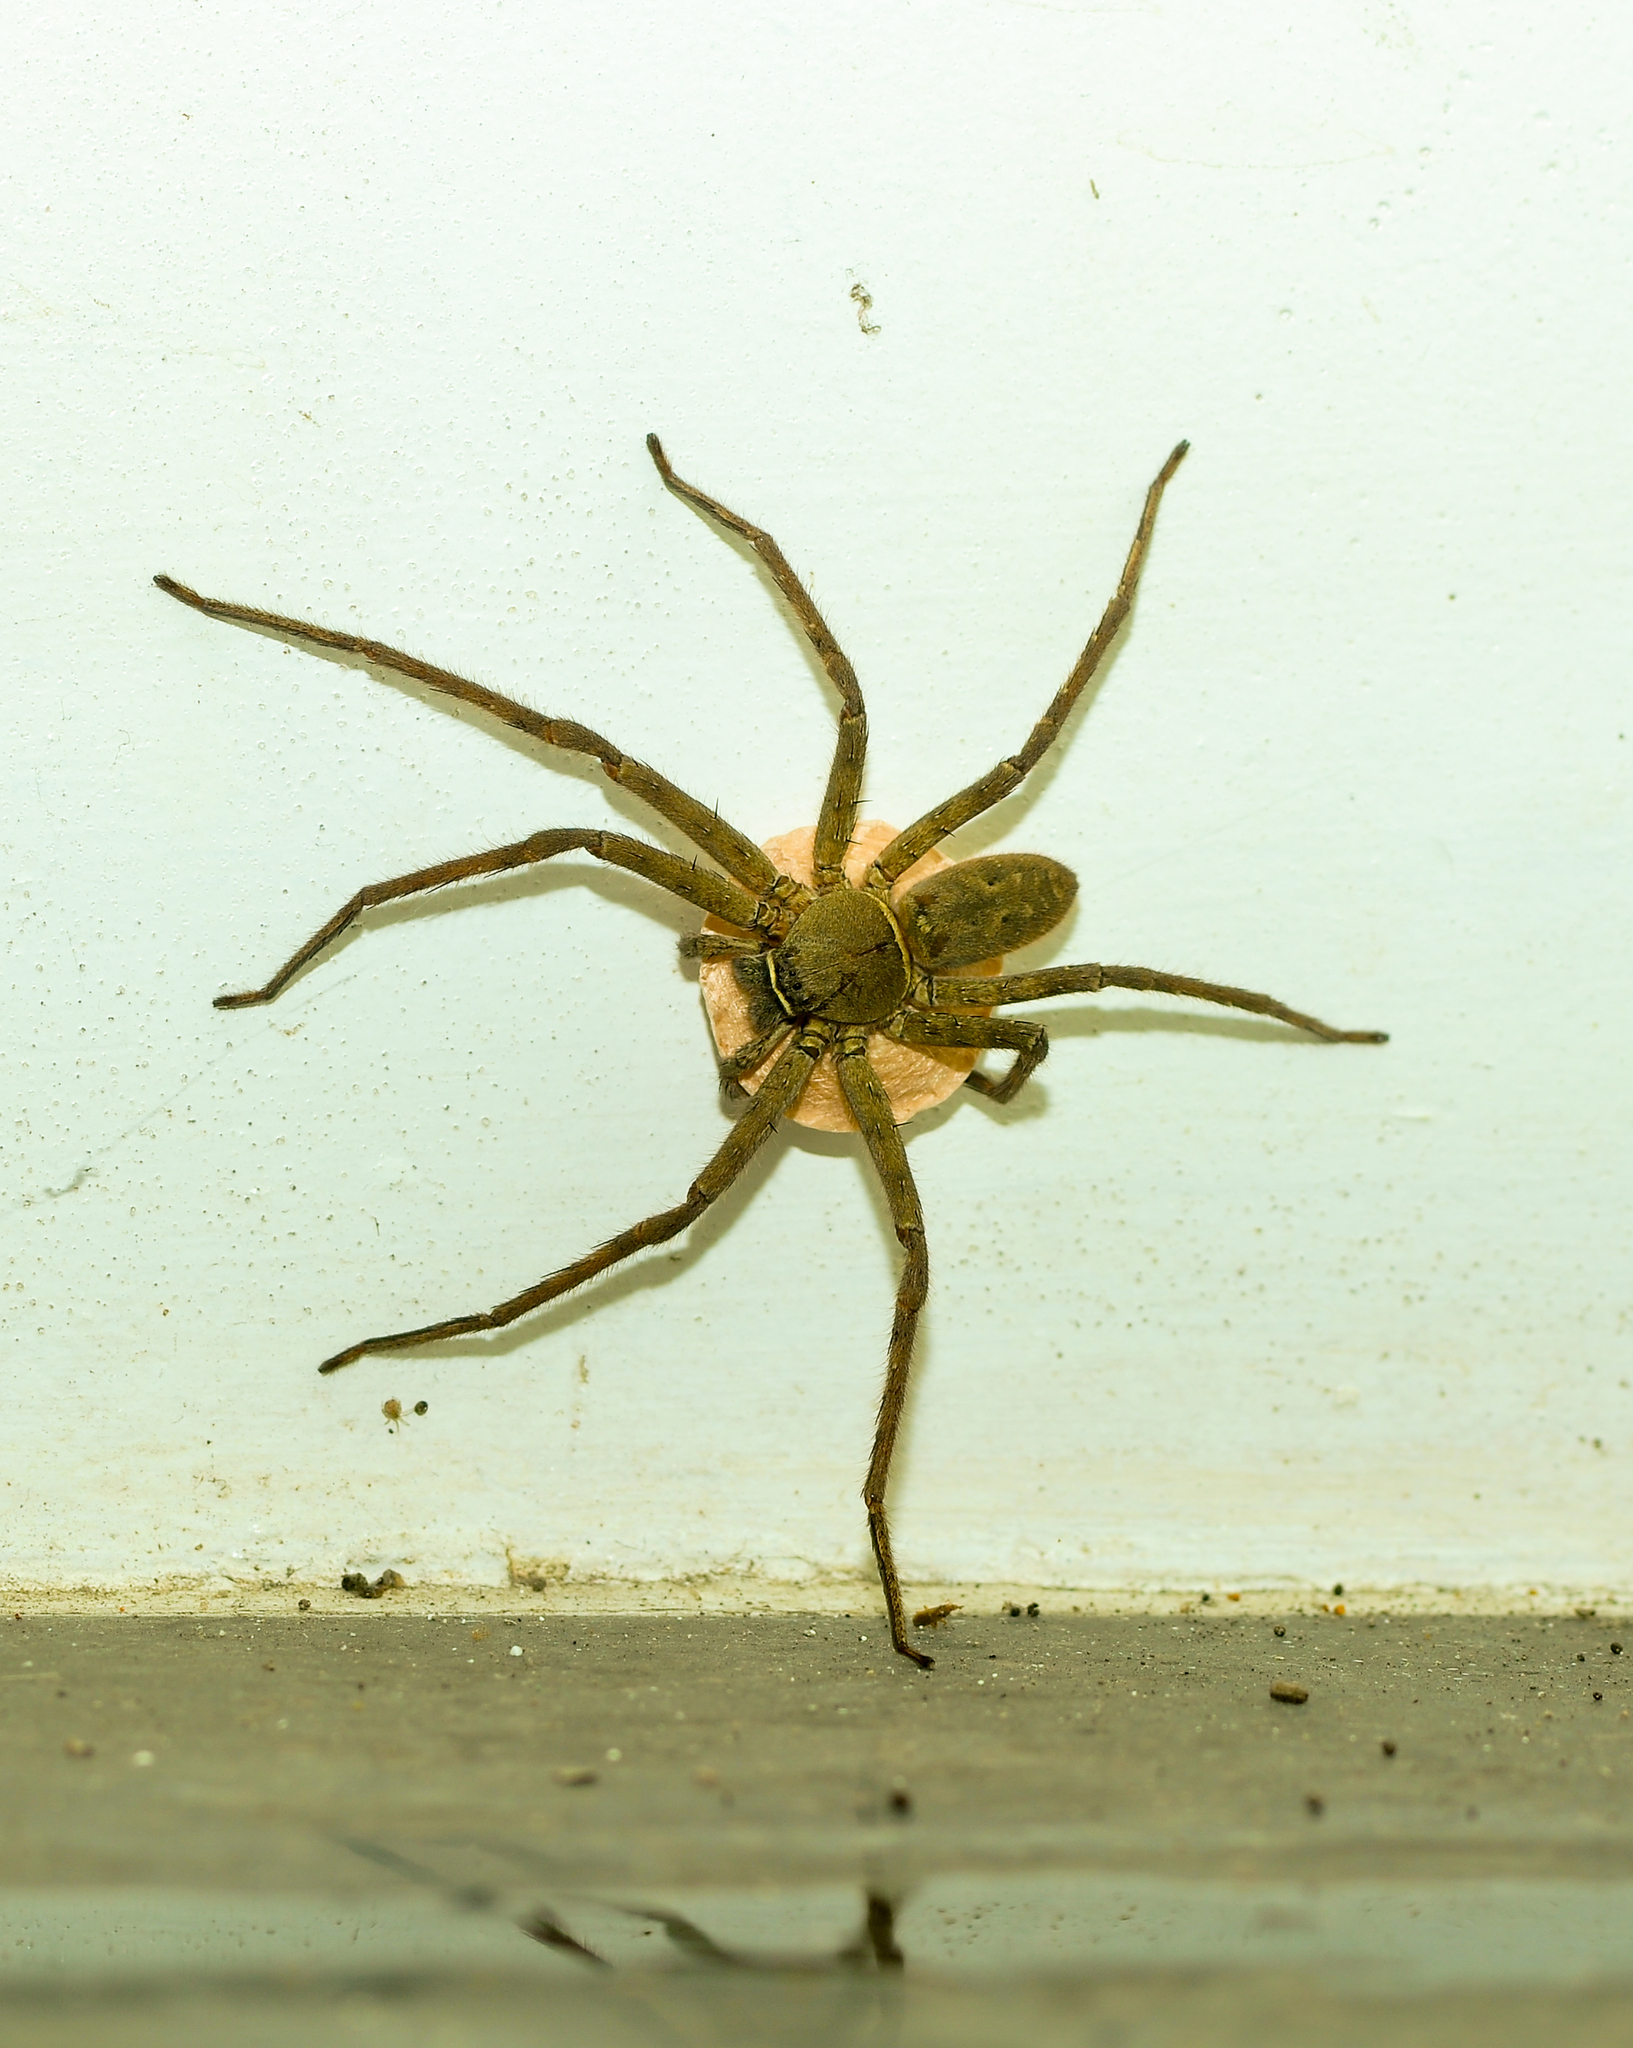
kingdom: Animalia
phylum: Arthropoda
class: Arachnida
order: Araneae
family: Sparassidae
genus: Heteropoda
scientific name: Heteropoda venatoria
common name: Huntsman spider
